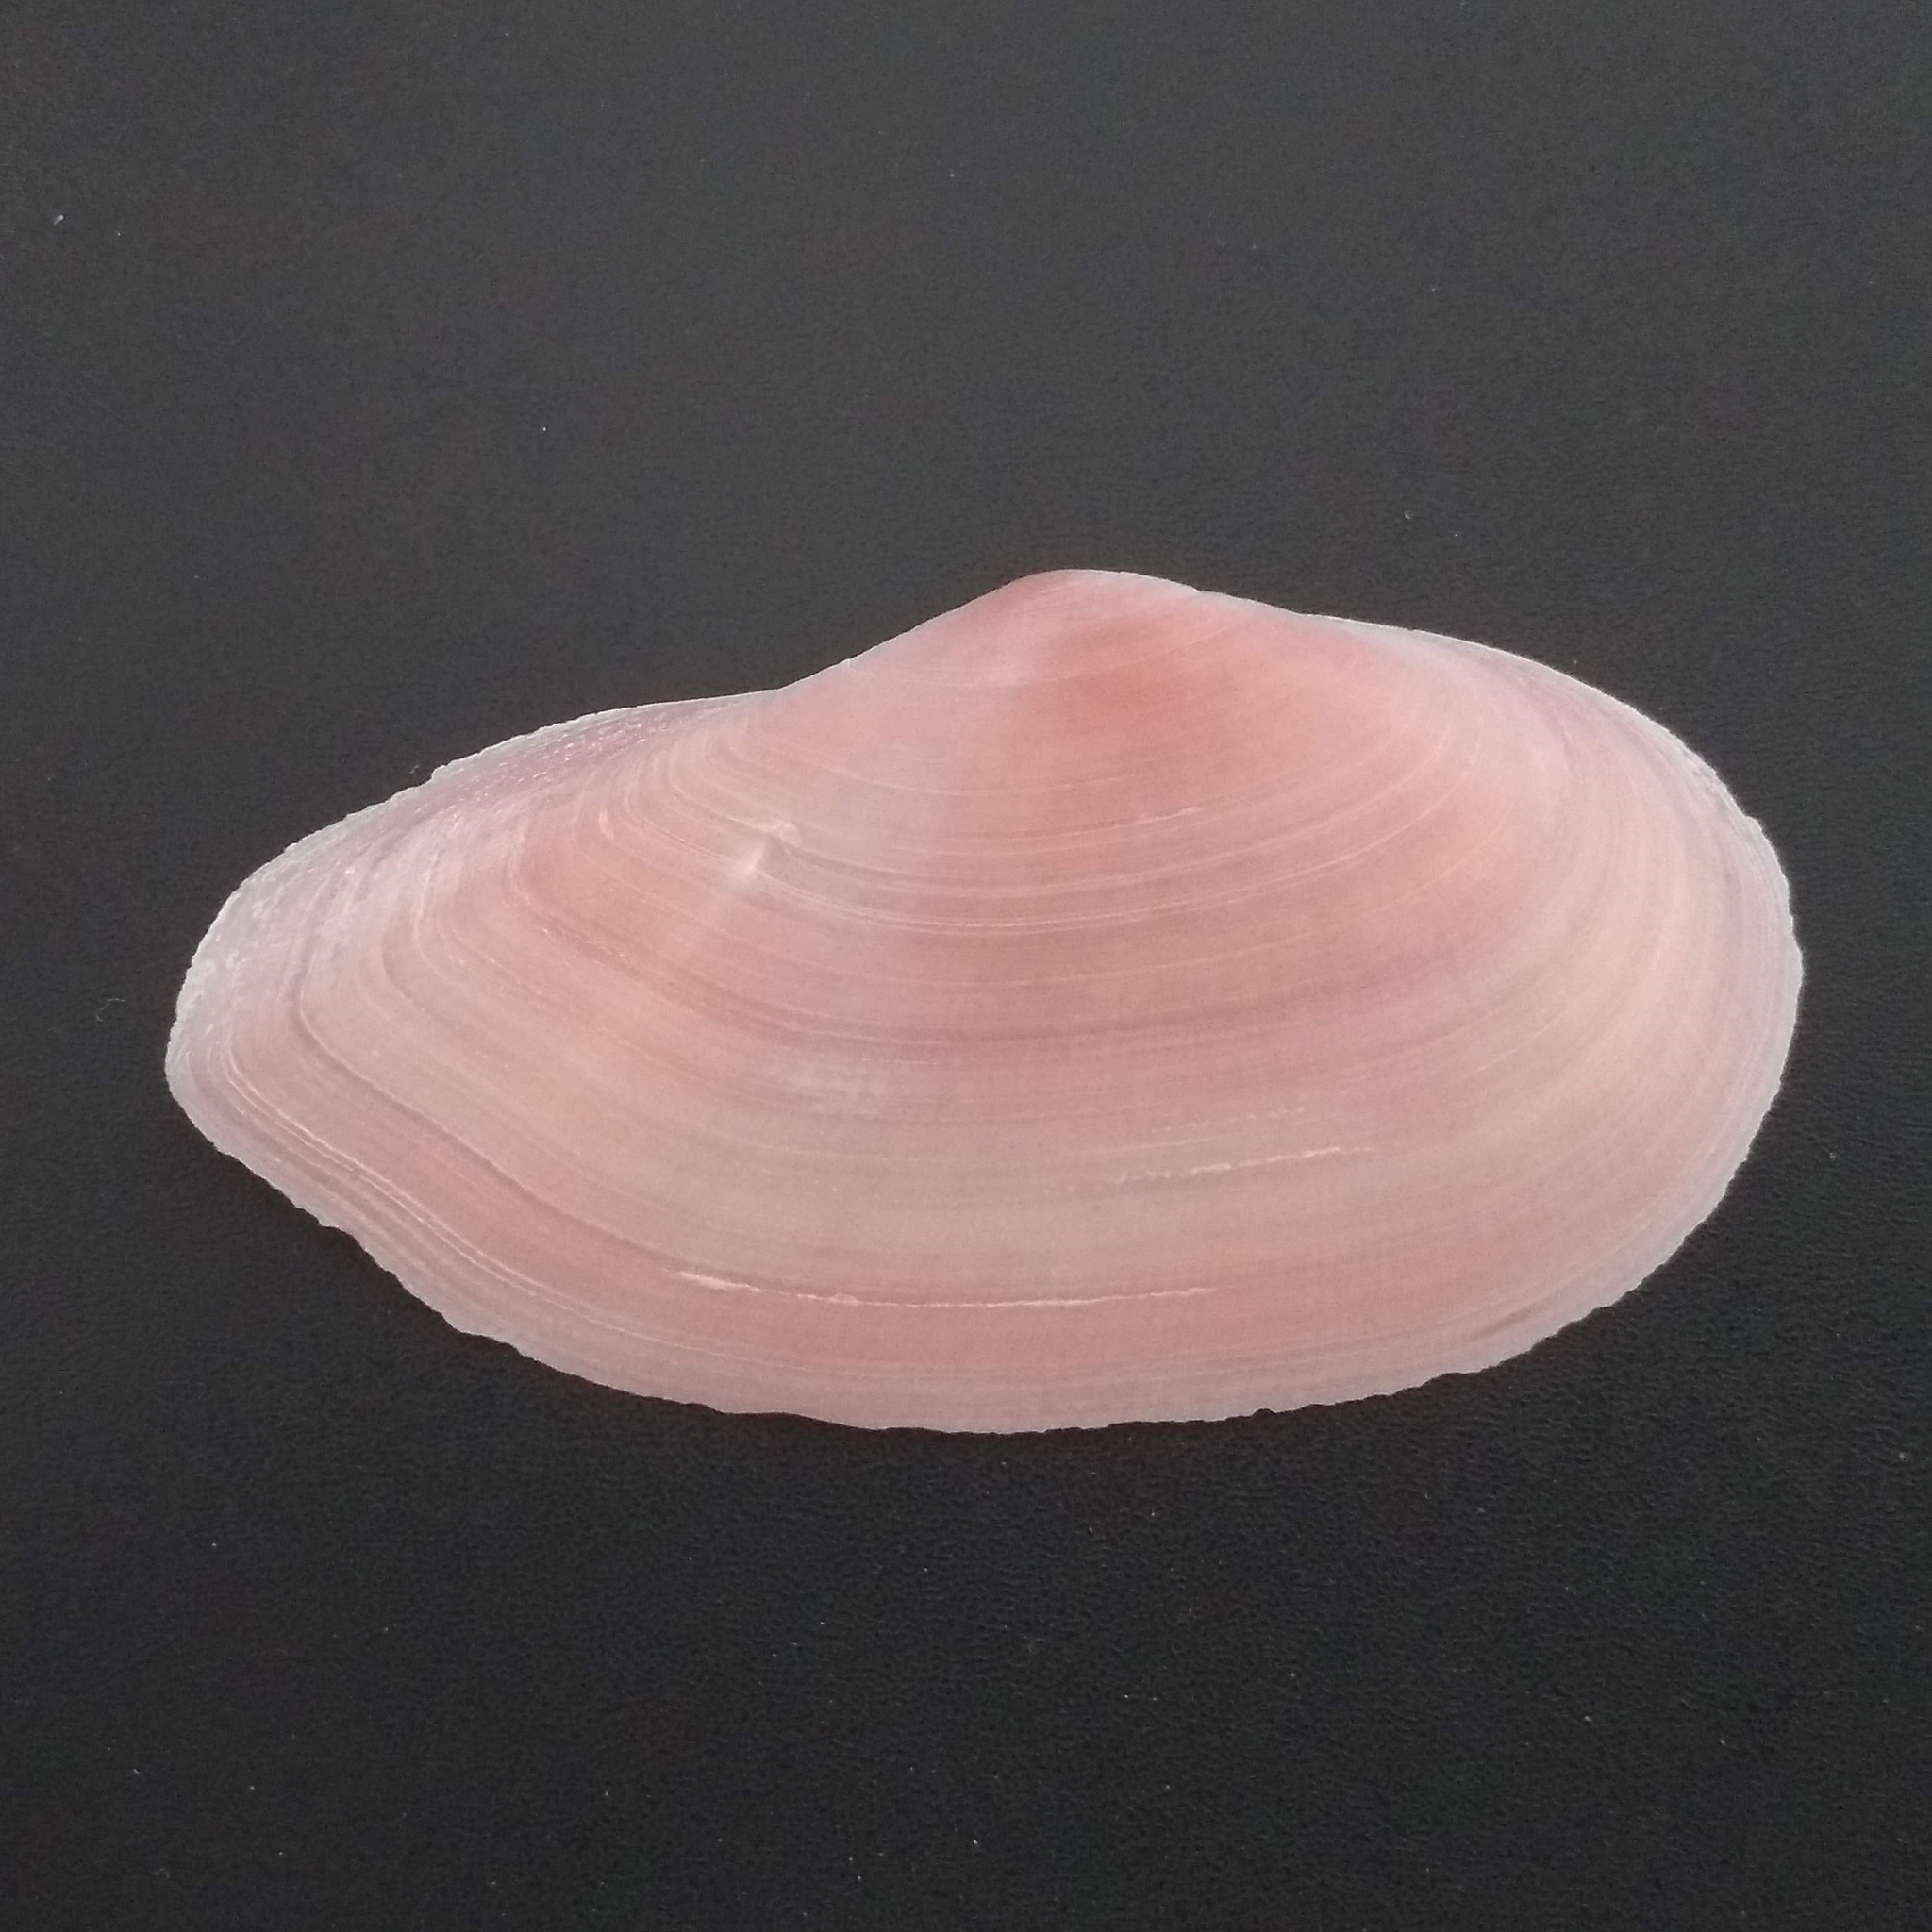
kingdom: Animalia
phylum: Mollusca
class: Bivalvia
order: Cardiida
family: Psammobiidae
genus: Psammotella
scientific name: Psammotella cruenta
